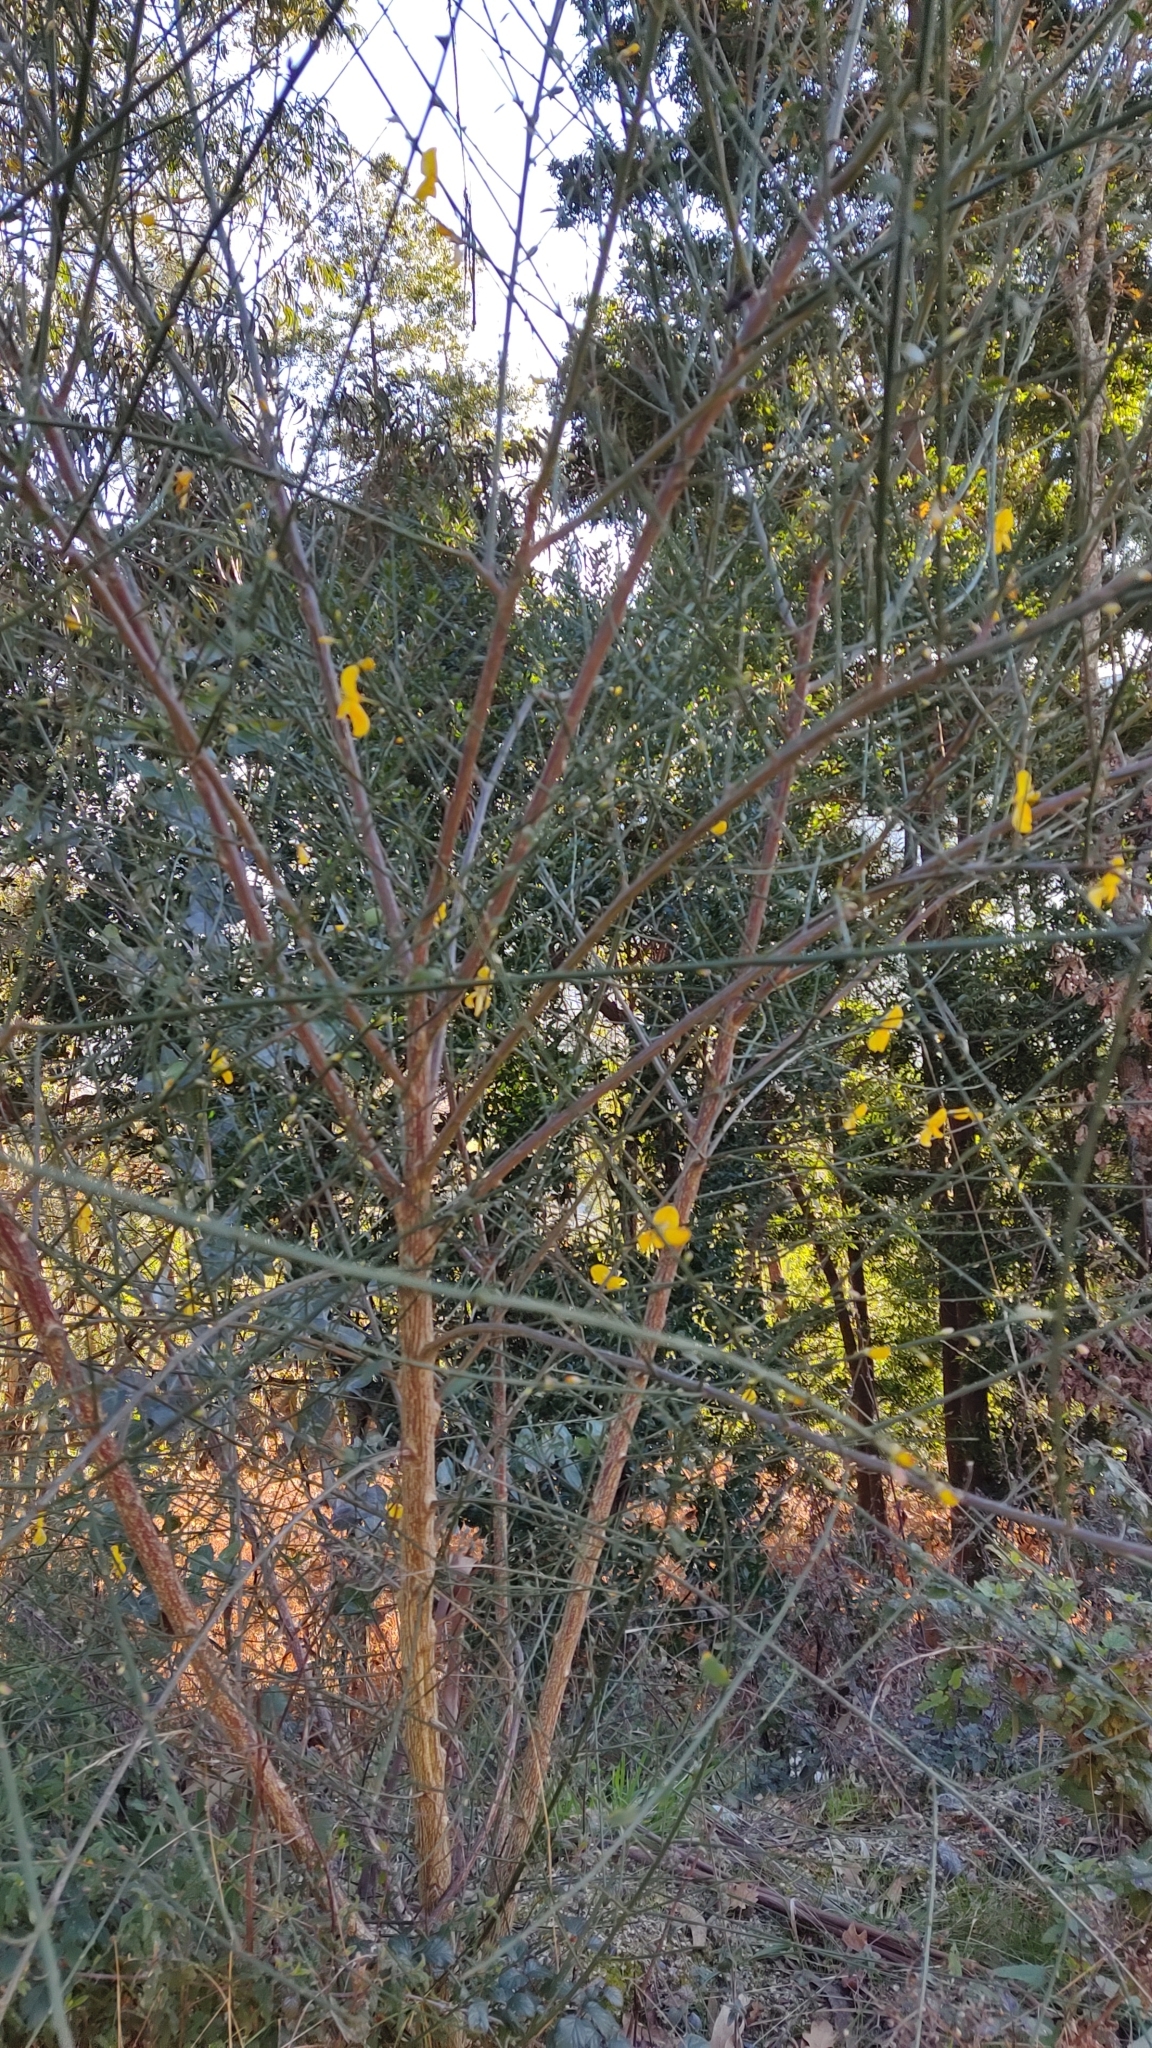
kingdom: Plantae
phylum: Tracheophyta
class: Magnoliopsida
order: Fabales
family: Fabaceae
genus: Cytisus
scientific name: Cytisus grandiflorus
